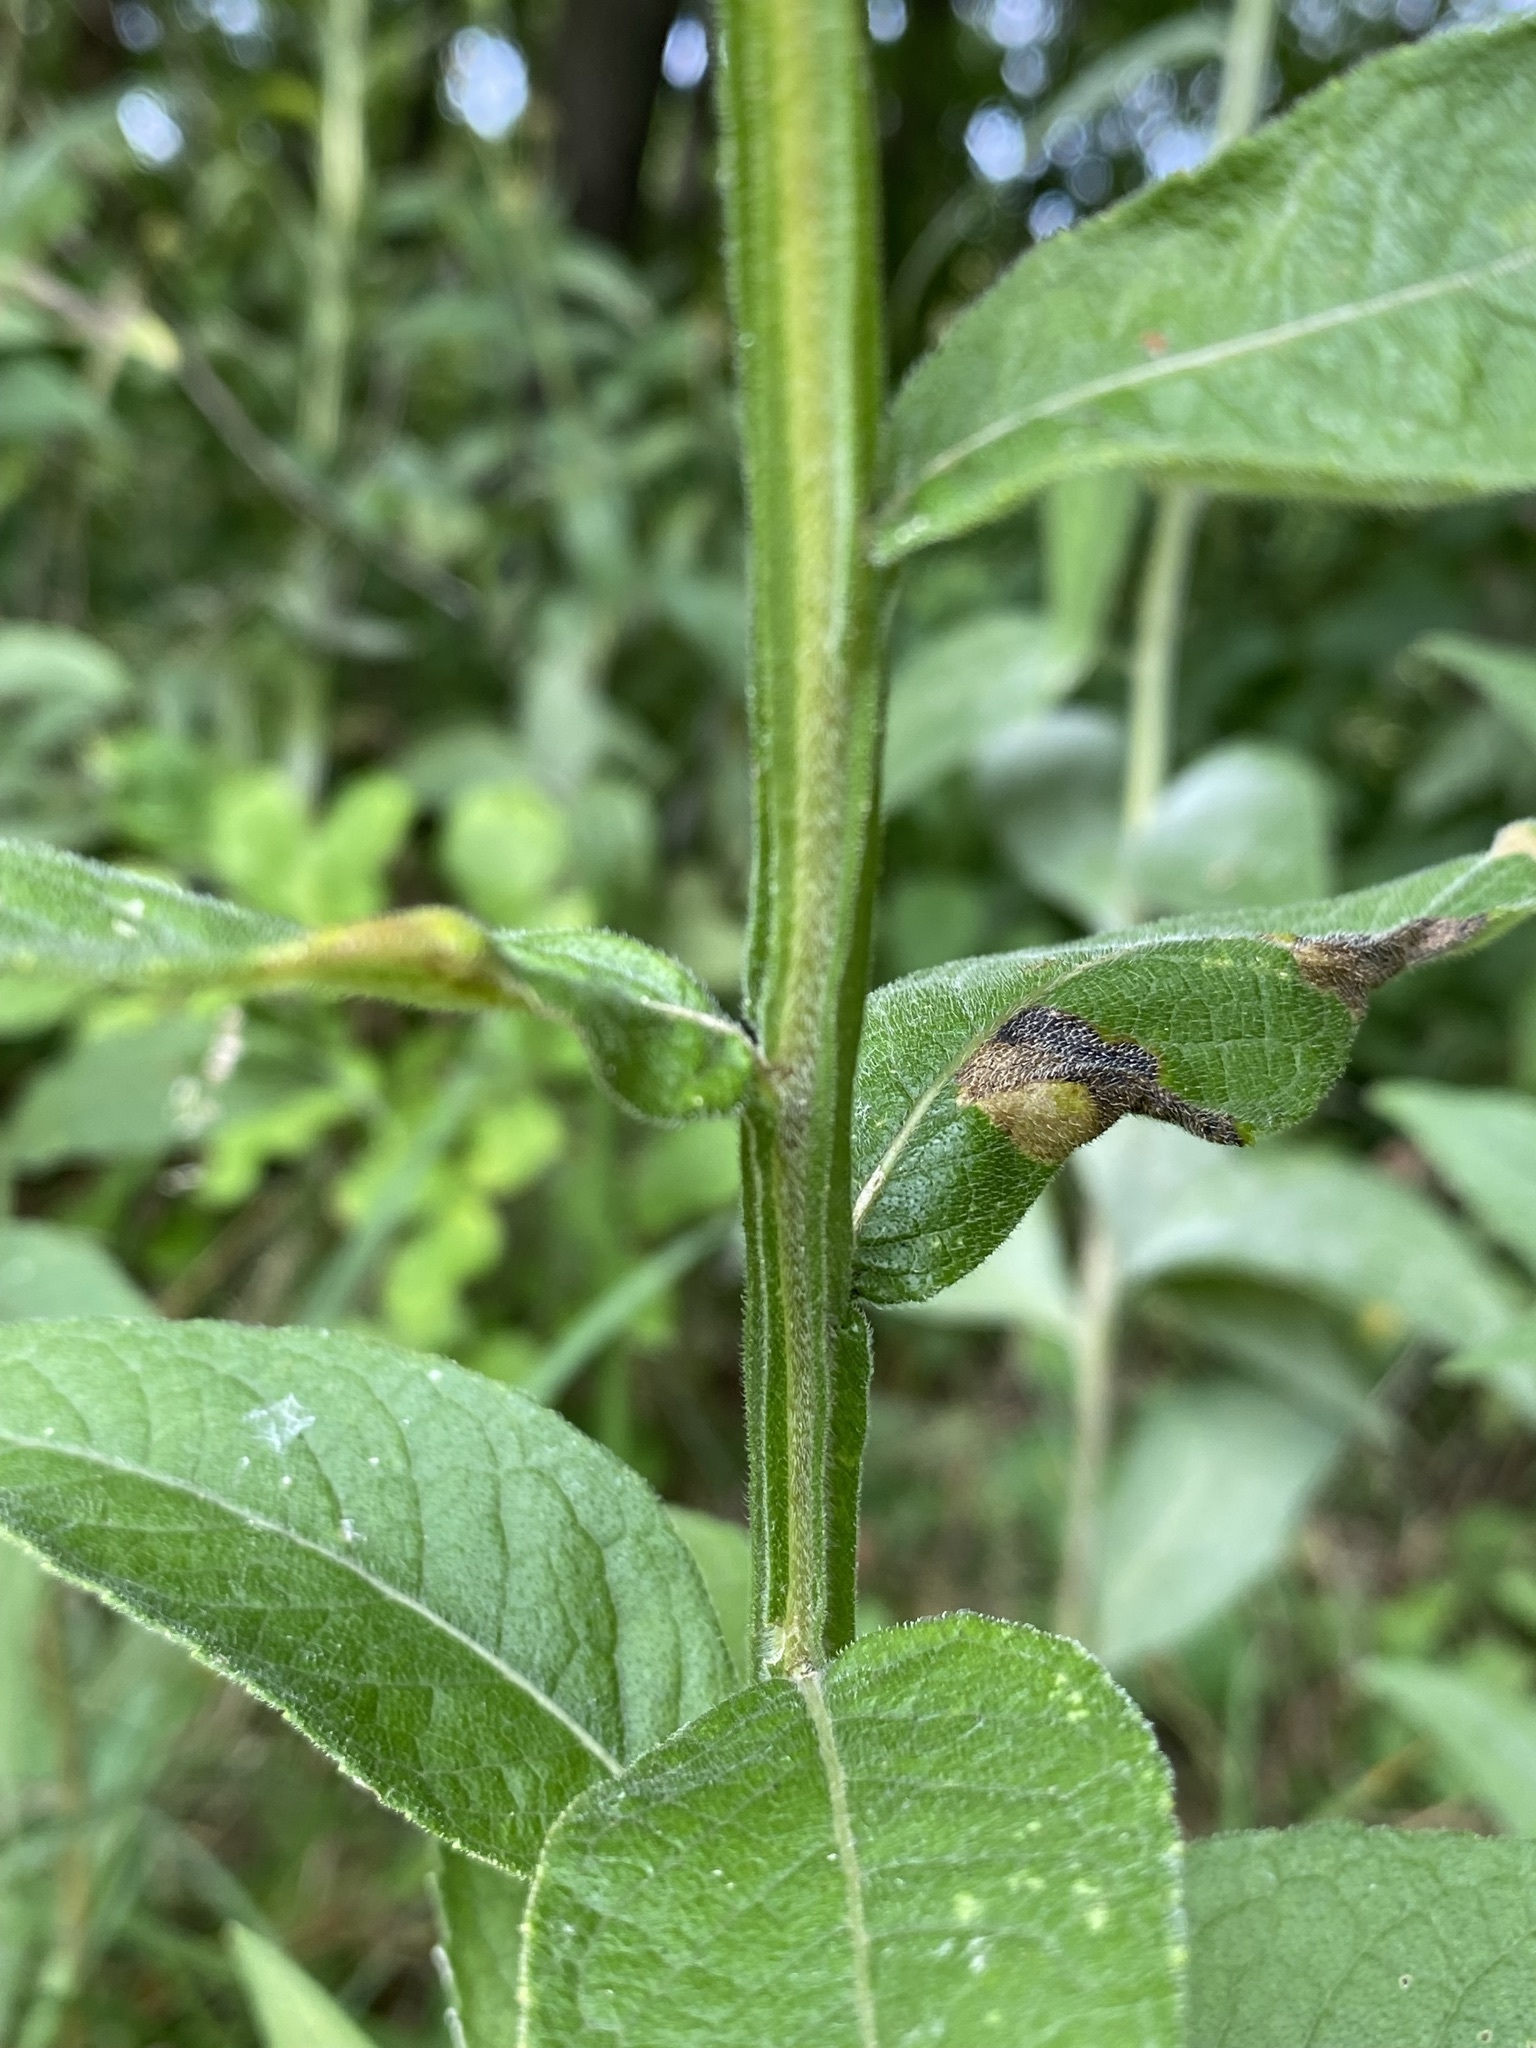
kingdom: Plantae
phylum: Tracheophyta
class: Magnoliopsida
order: Asterales
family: Asteraceae
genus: Verbesina
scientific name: Verbesina helianthoides
